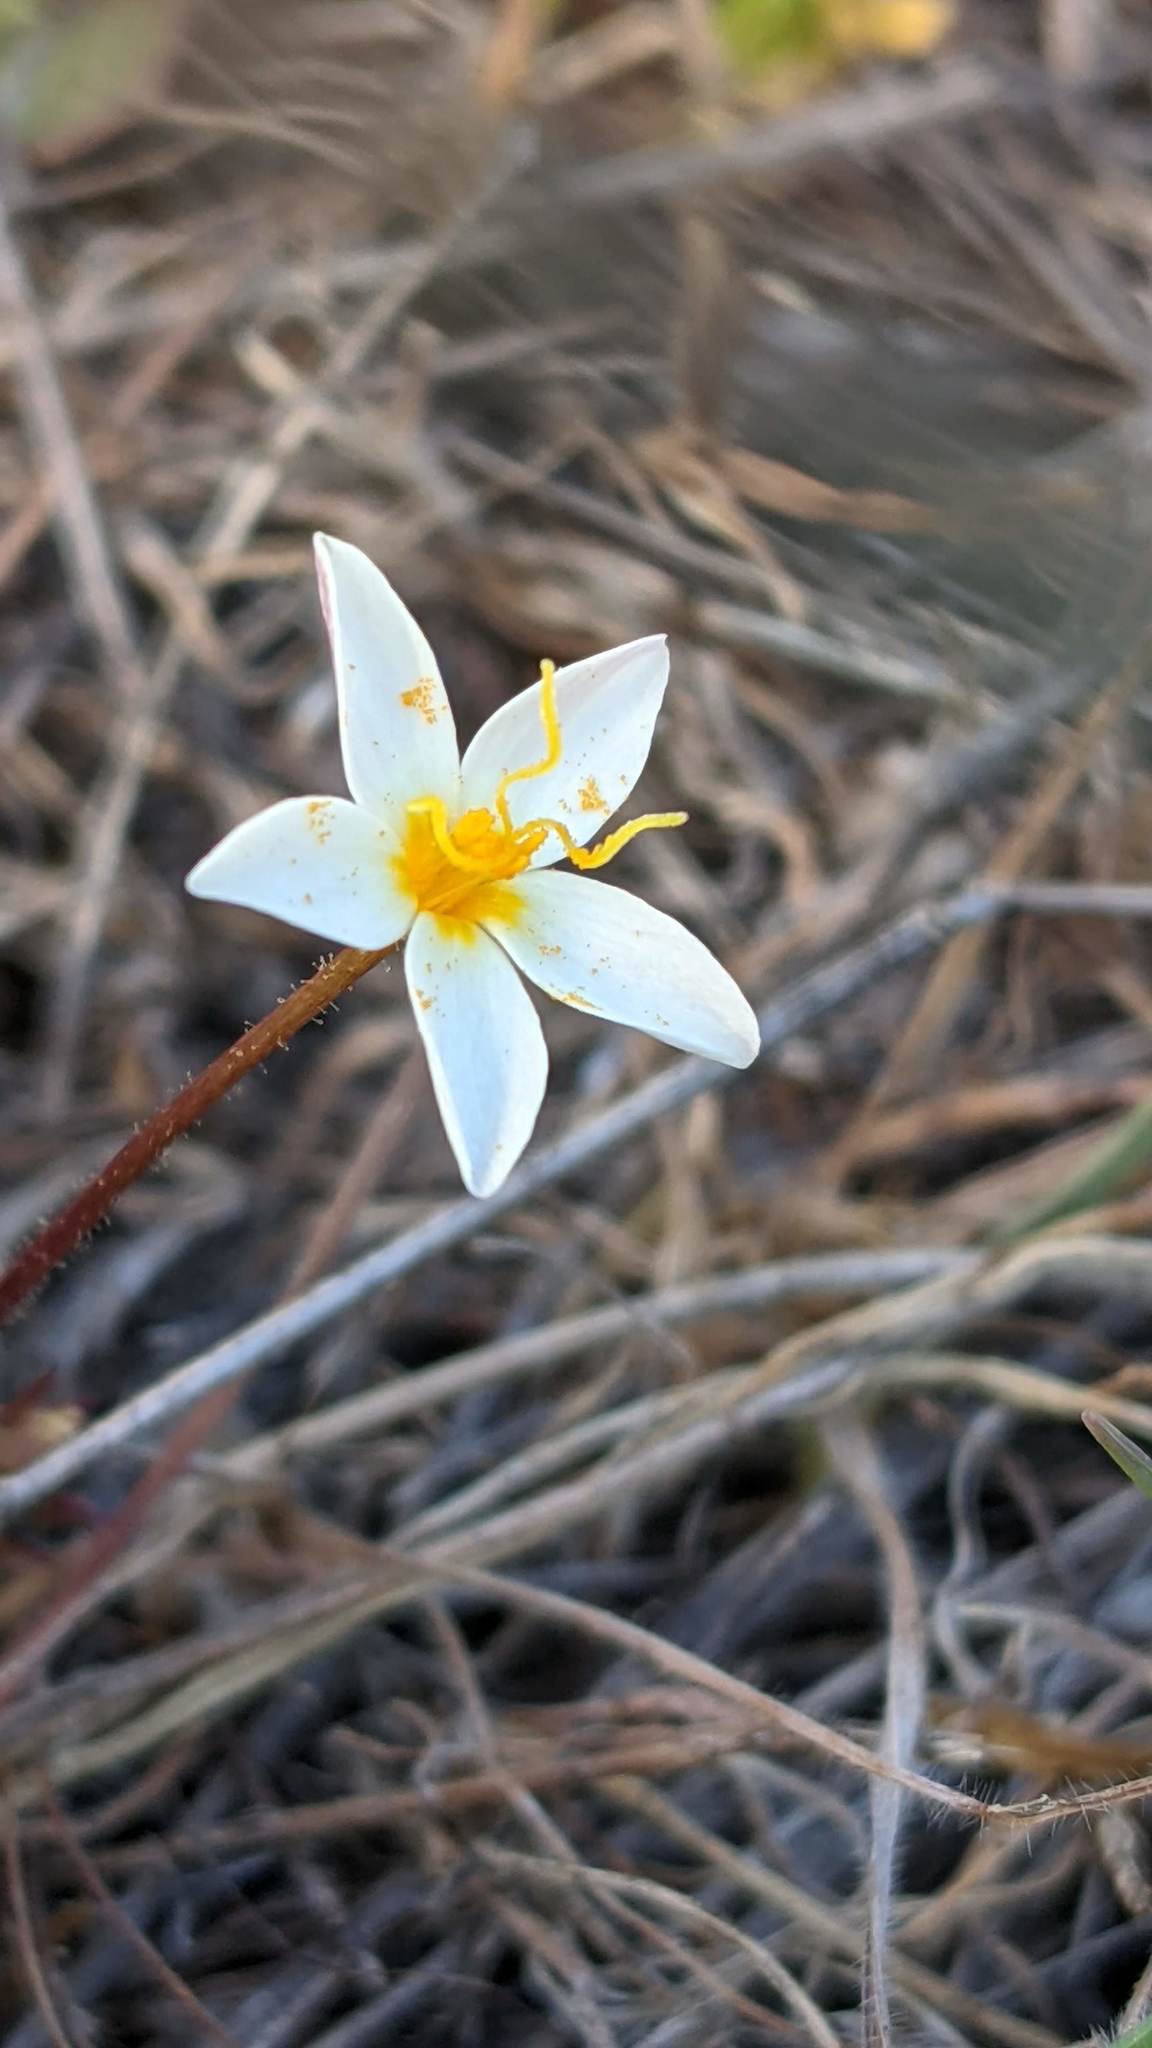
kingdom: Plantae
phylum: Tracheophyta
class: Magnoliopsida
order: Ericales
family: Polemoniaceae
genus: Leptosiphon
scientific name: Leptosiphon parviflorus
